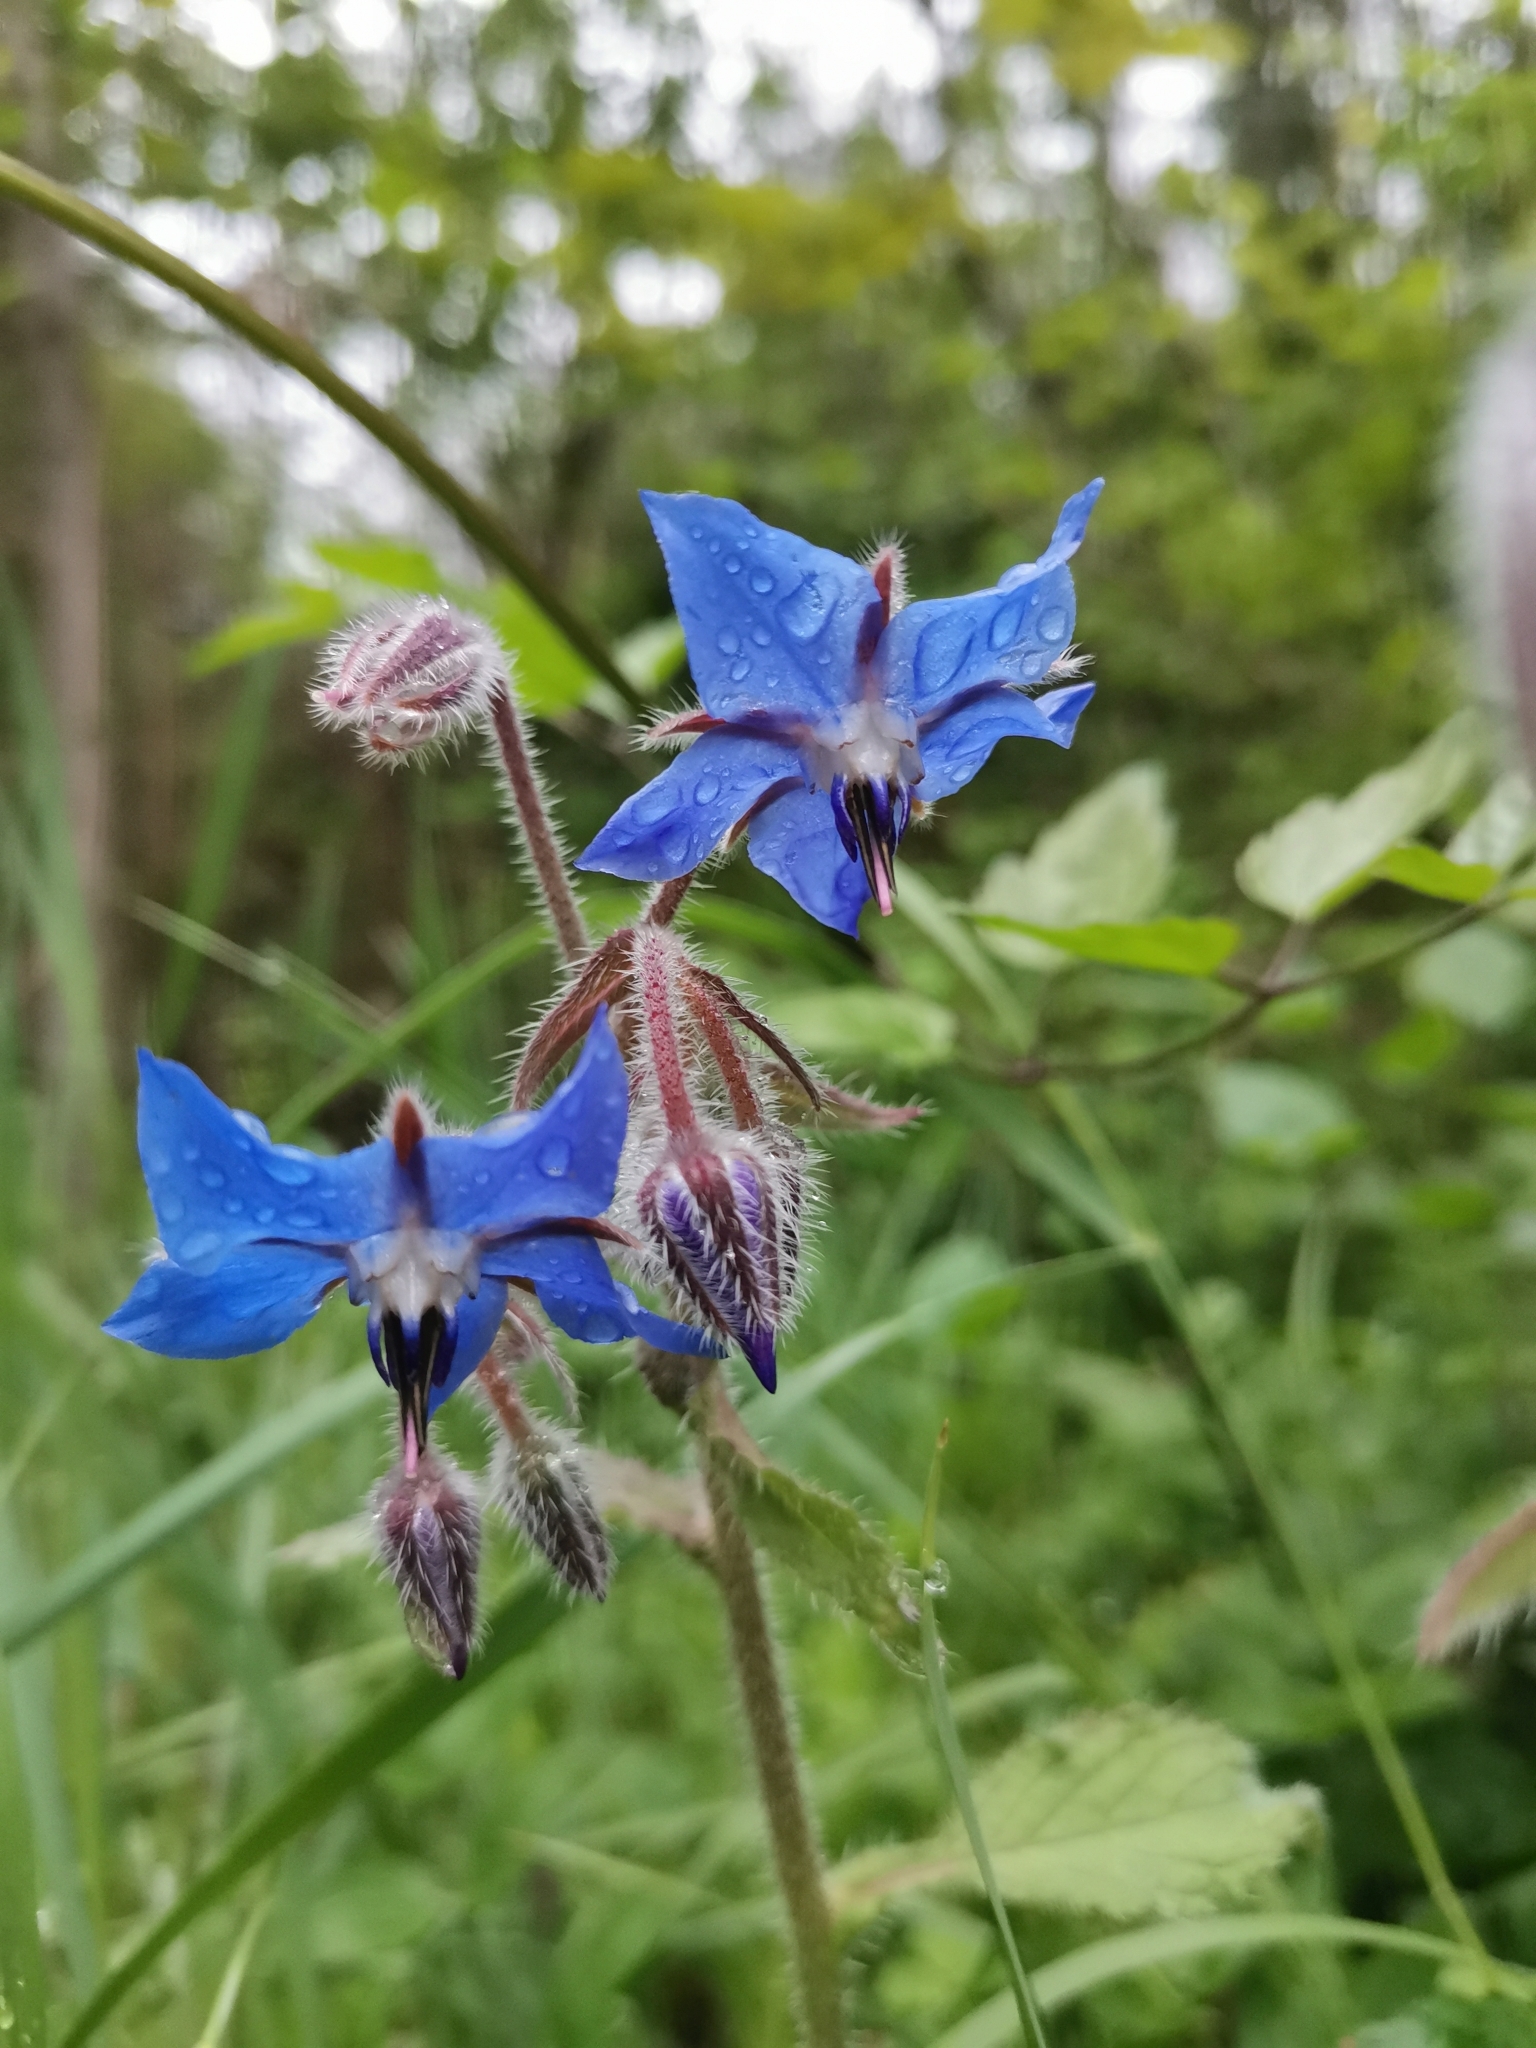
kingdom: Plantae
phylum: Tracheophyta
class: Magnoliopsida
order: Boraginales
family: Boraginaceae
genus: Borago
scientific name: Borago officinalis
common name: Borage
